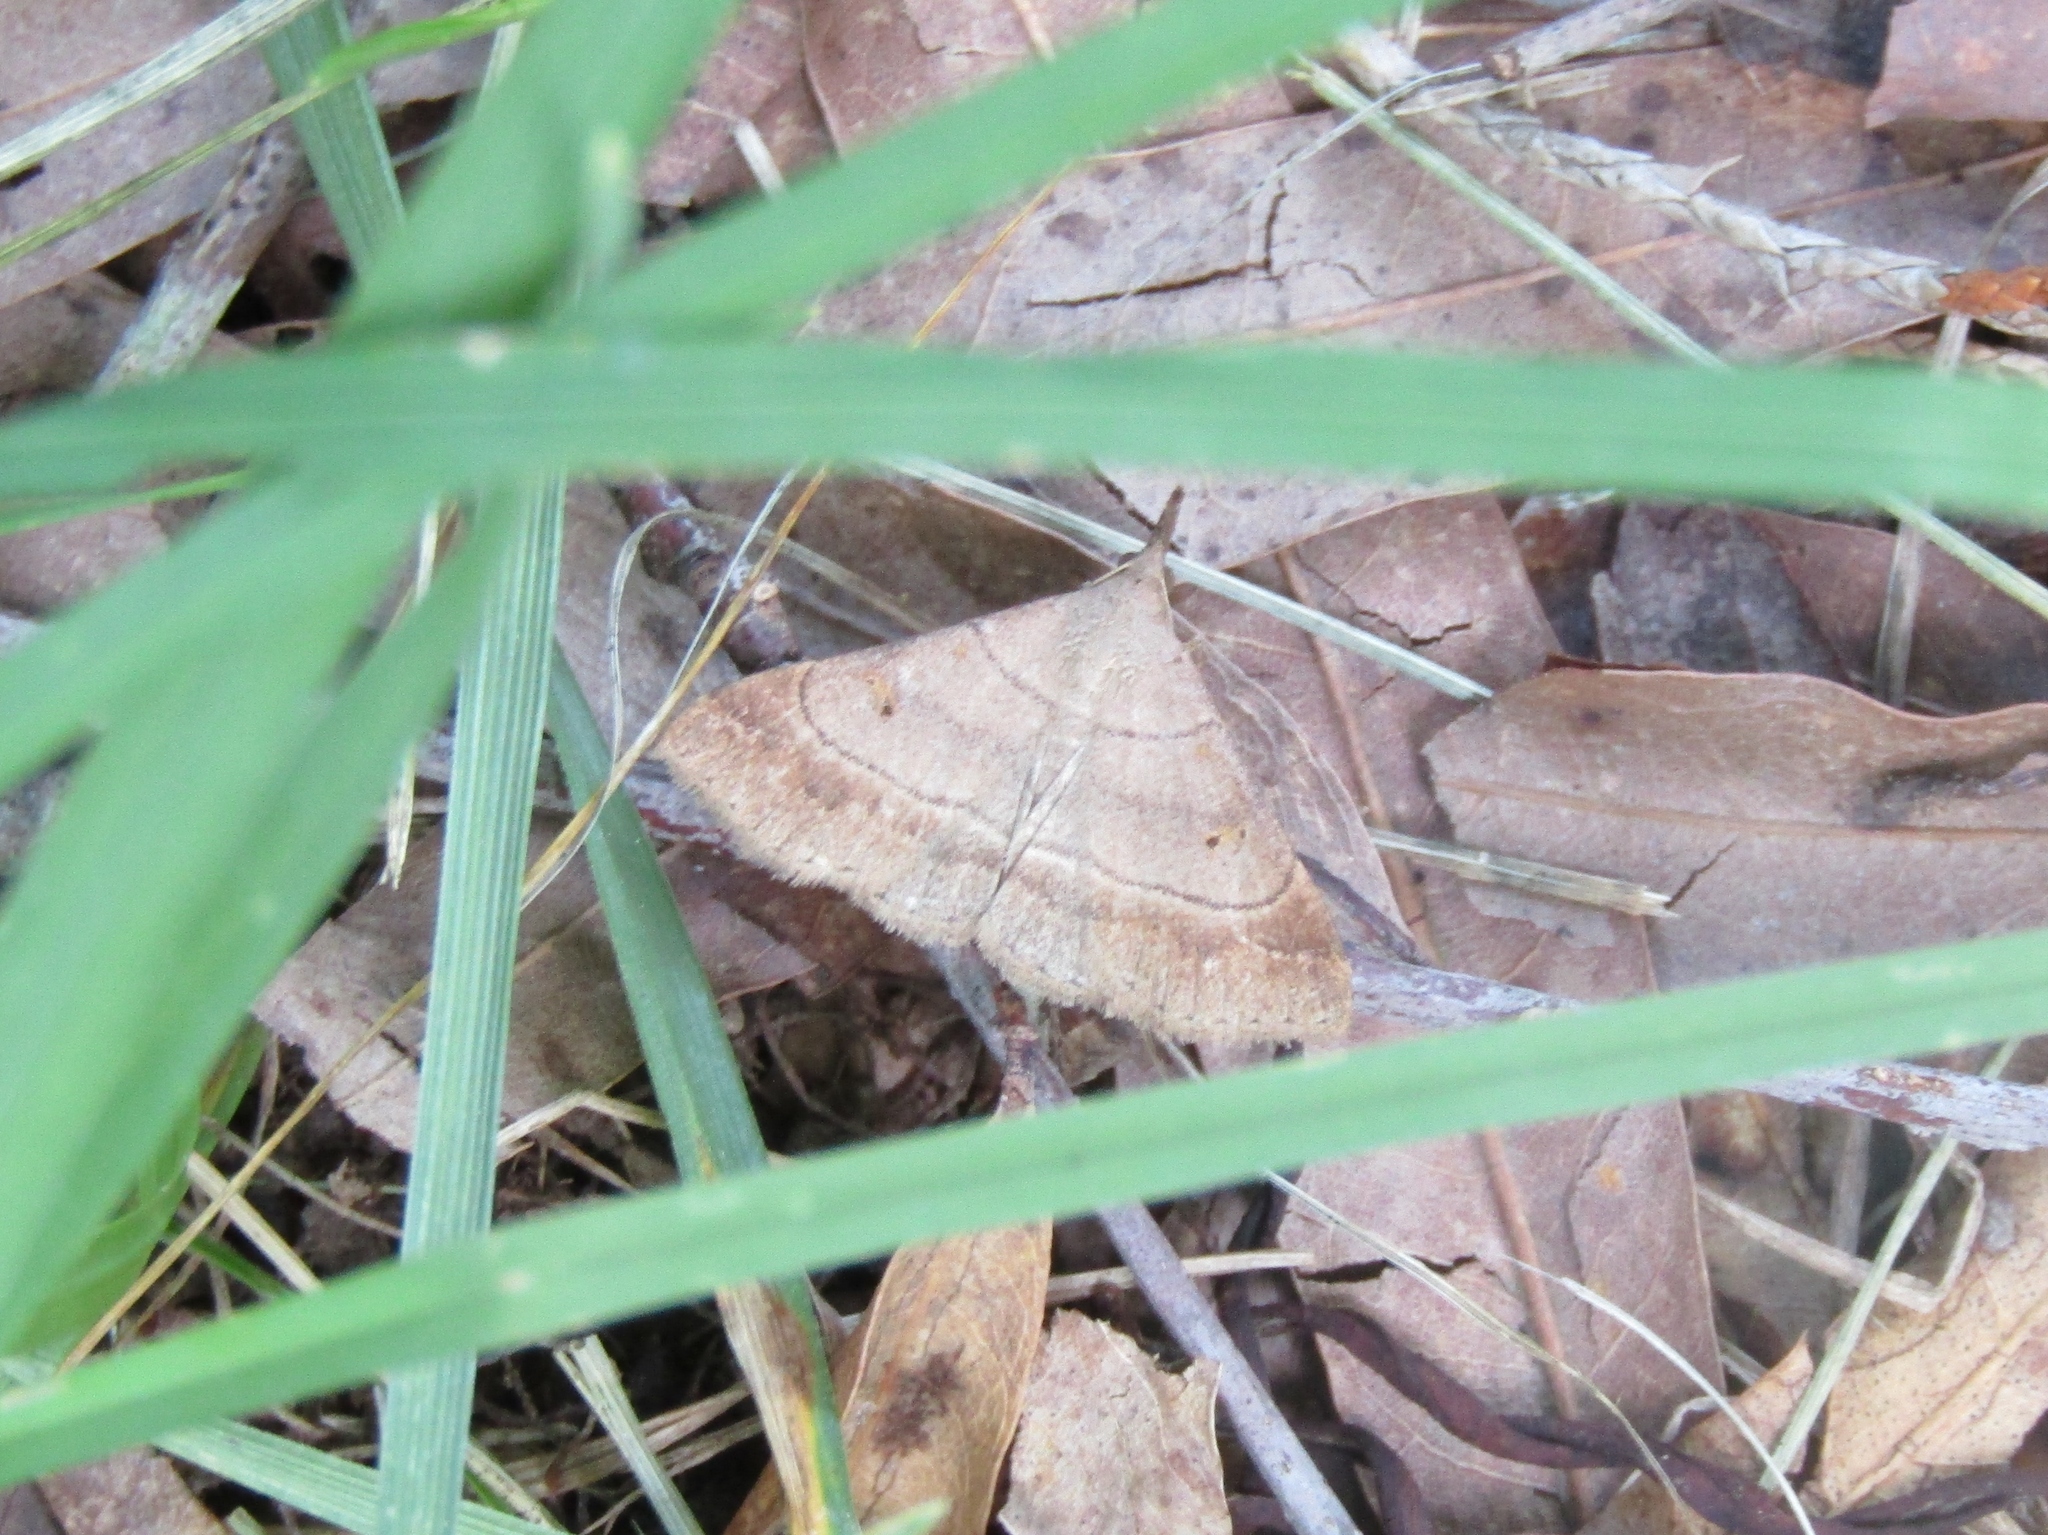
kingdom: Animalia
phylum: Arthropoda
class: Insecta
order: Lepidoptera
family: Erebidae
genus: Renia
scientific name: Renia flavipunctalis
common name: Yellow-spotted renia moth
